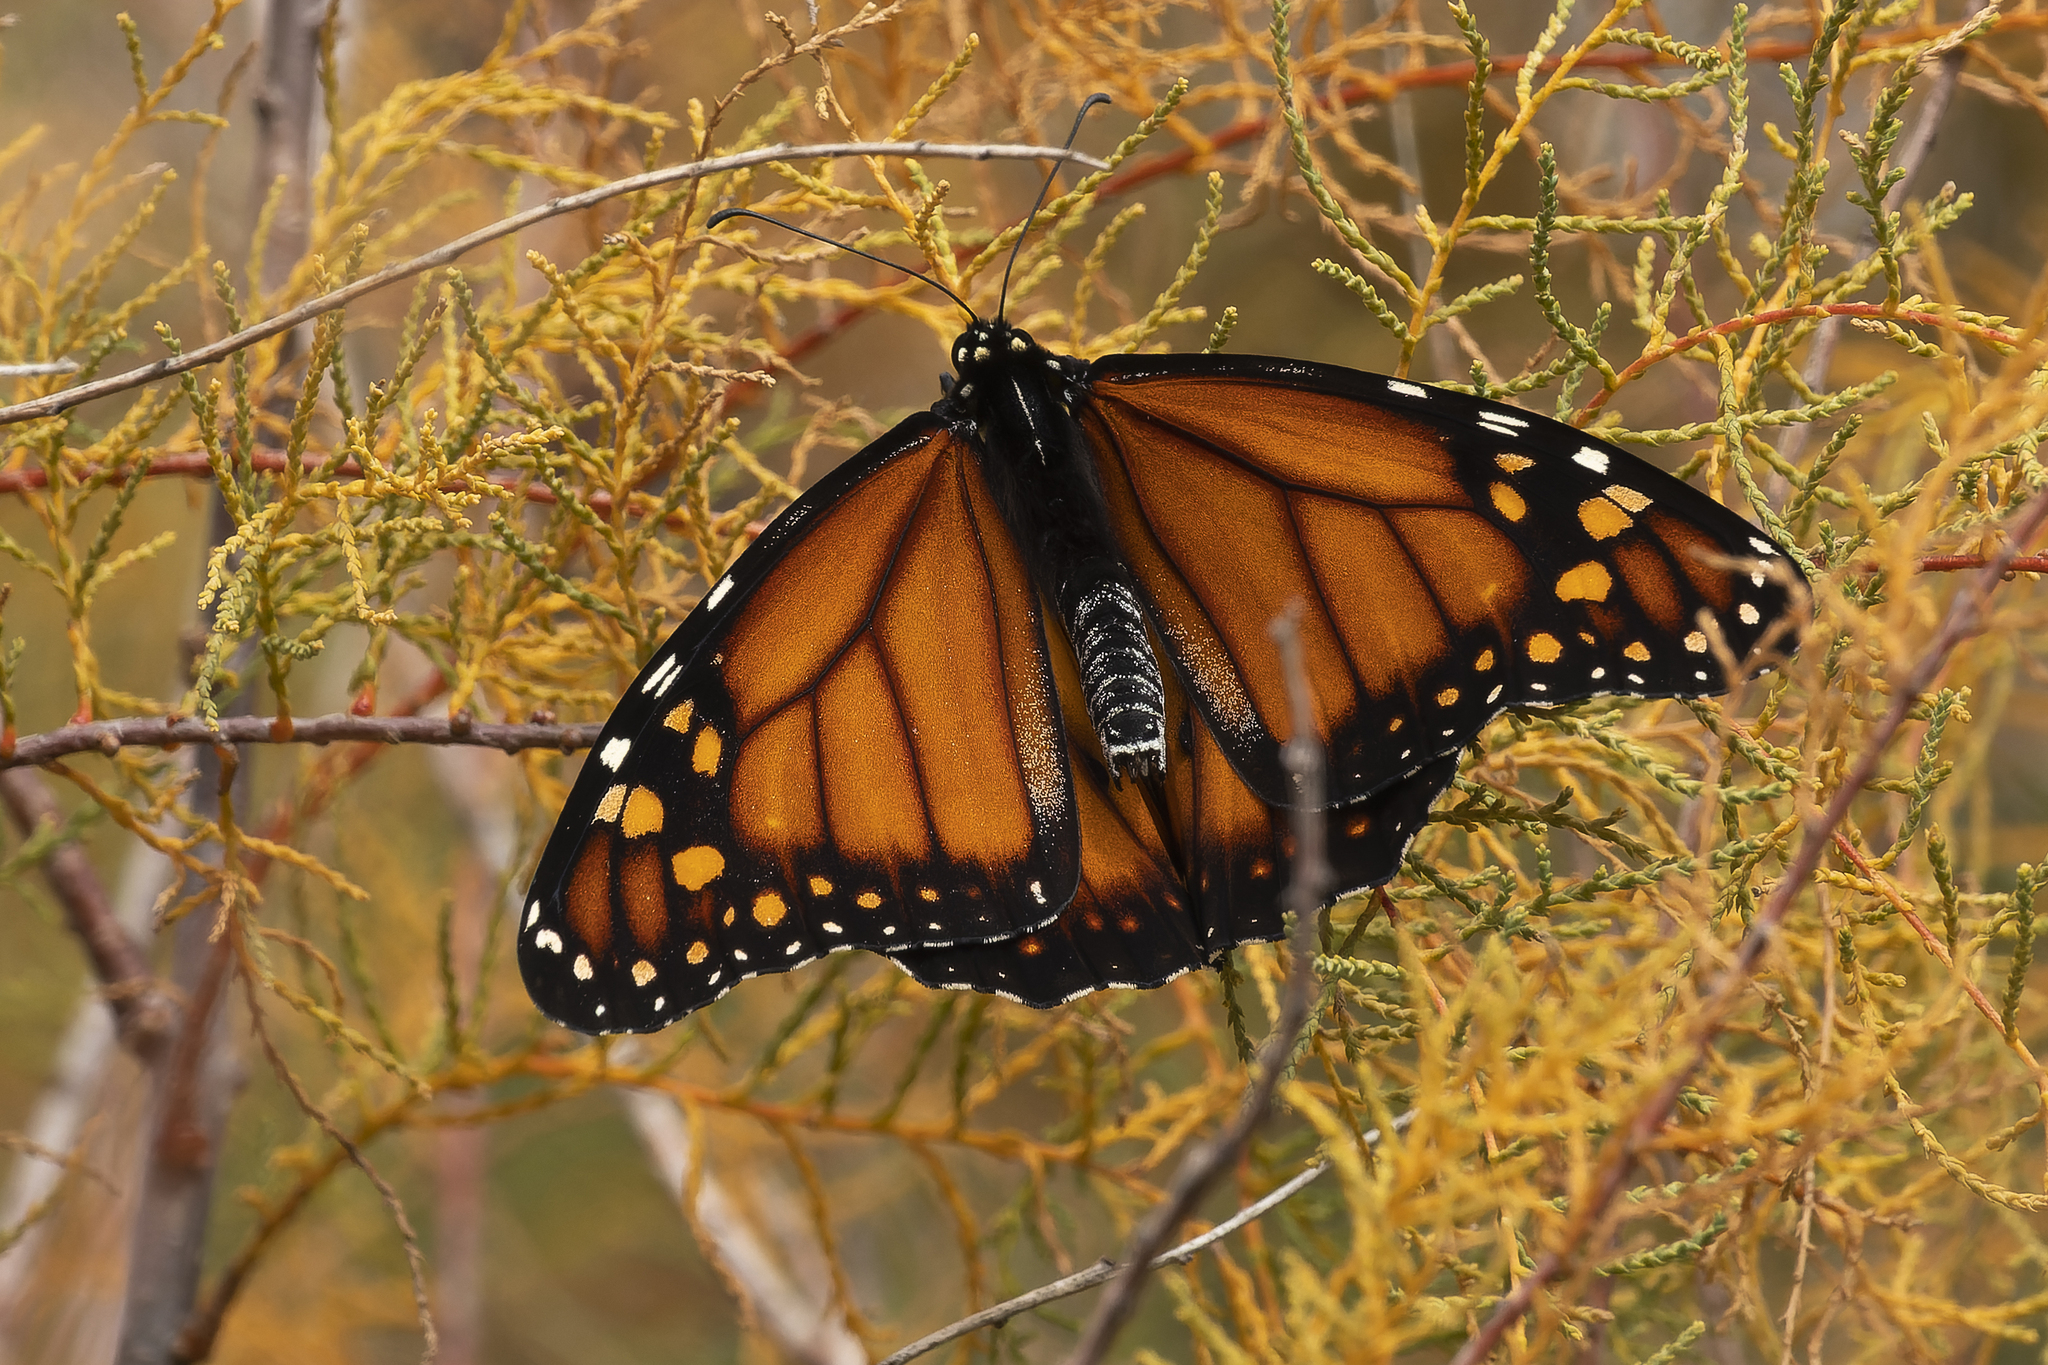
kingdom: Animalia
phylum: Arthropoda
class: Insecta
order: Lepidoptera
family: Nymphalidae
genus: Danaus
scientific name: Danaus erippus
